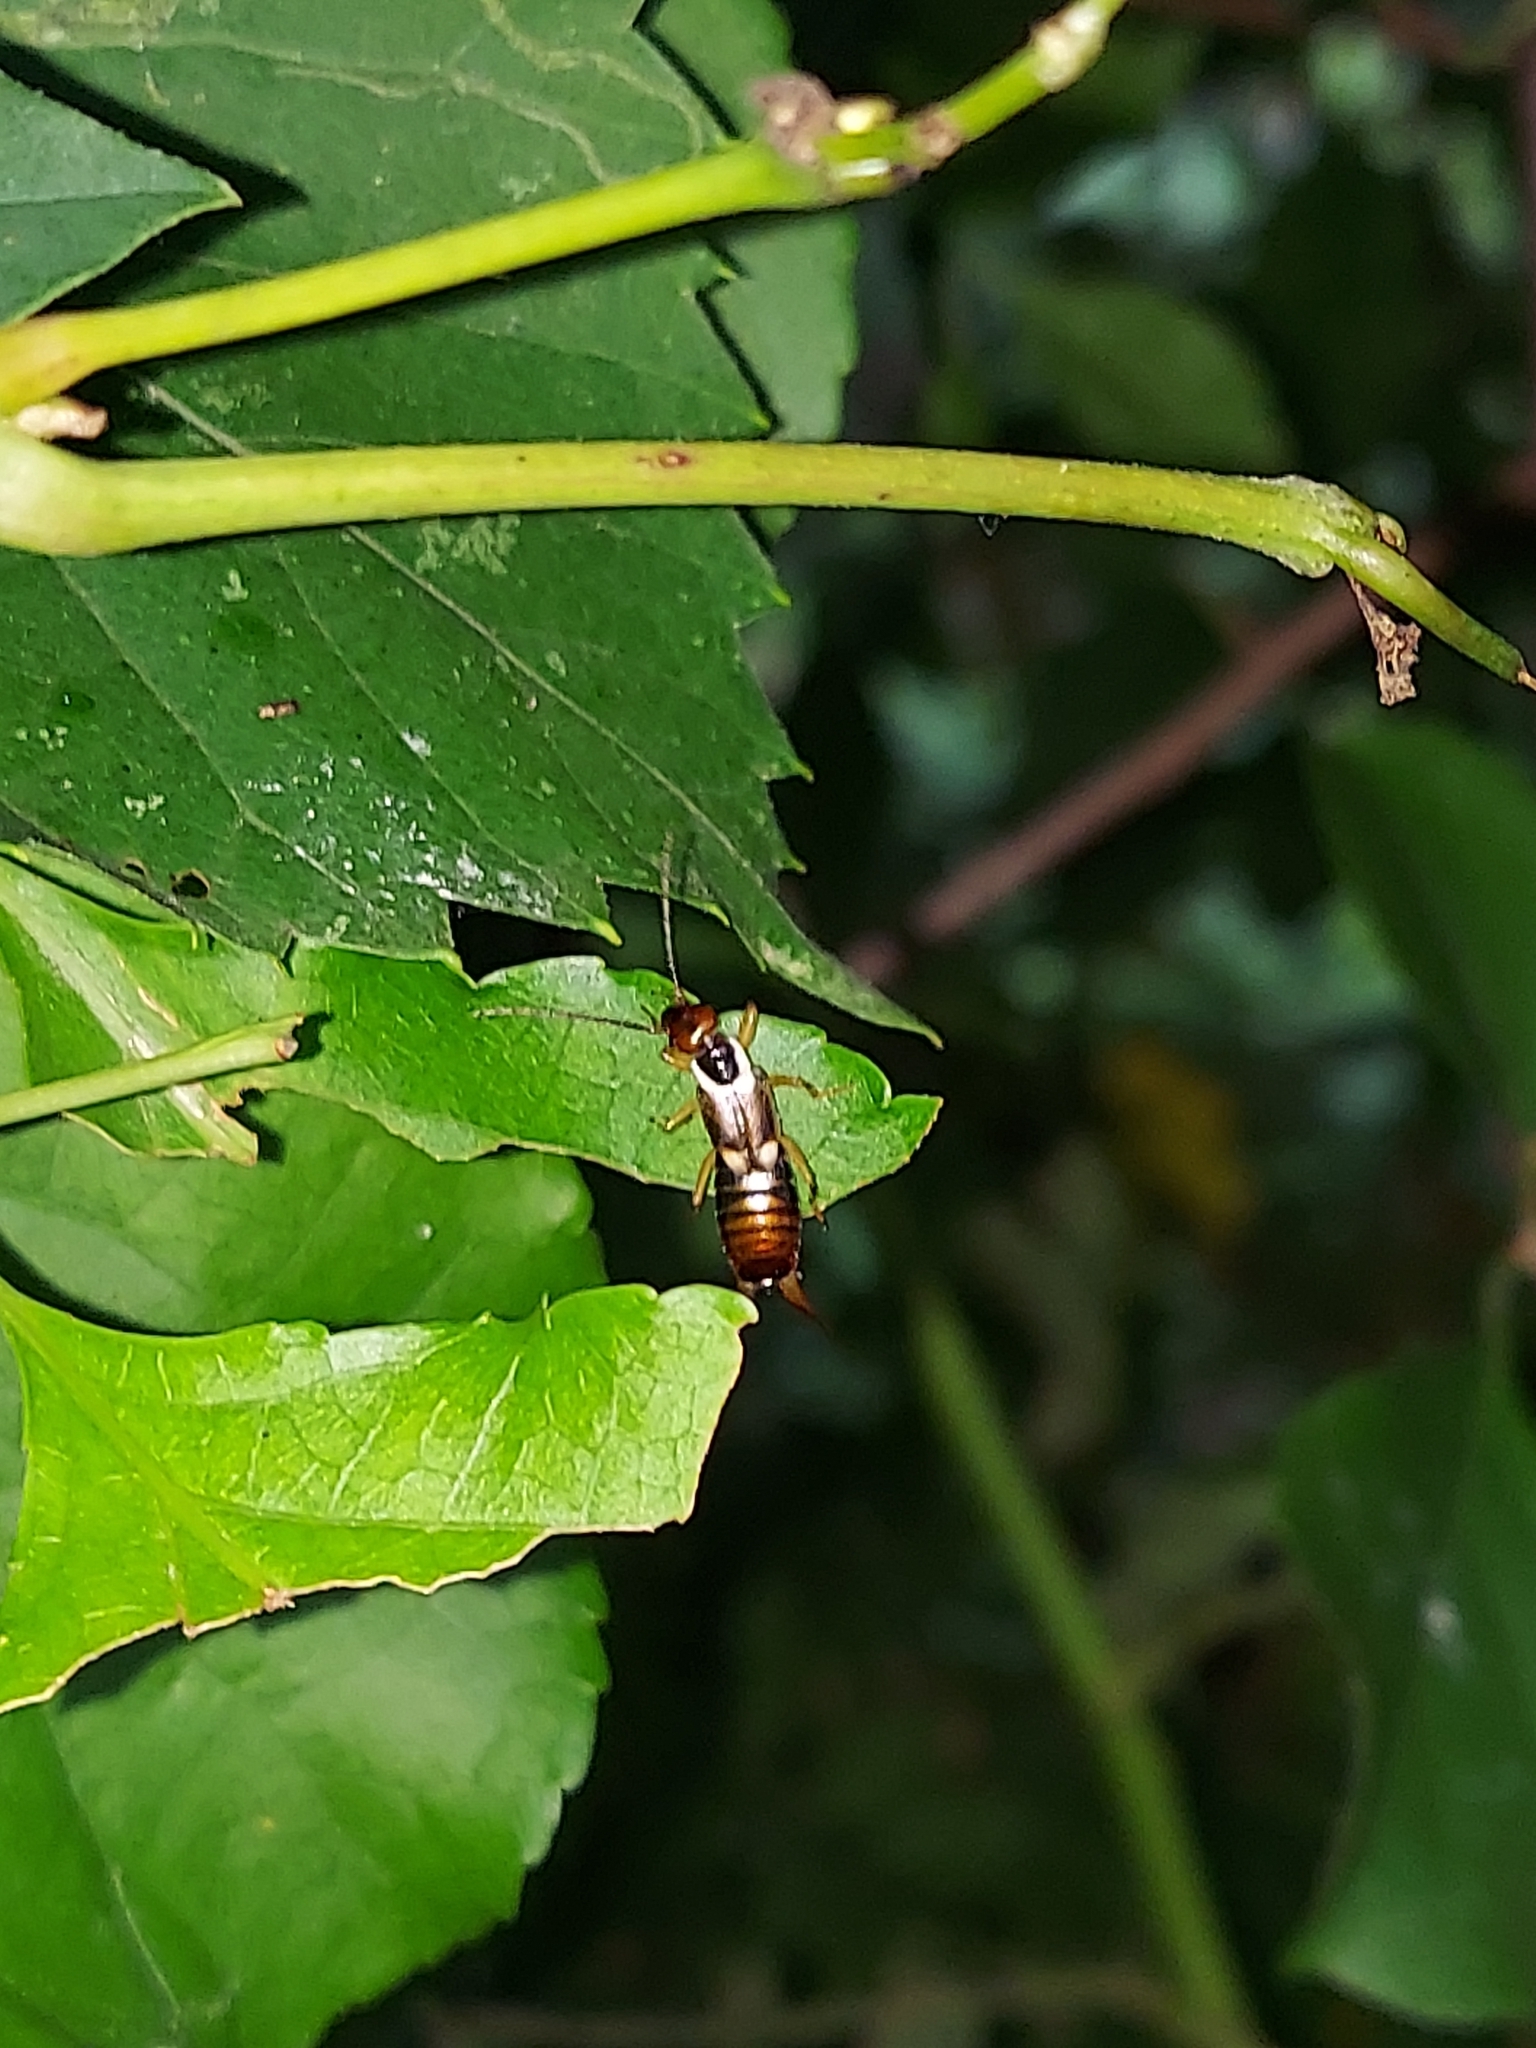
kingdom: Animalia
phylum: Arthropoda
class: Insecta
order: Dermaptera
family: Forficulidae
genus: Forficula
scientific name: Forficula
